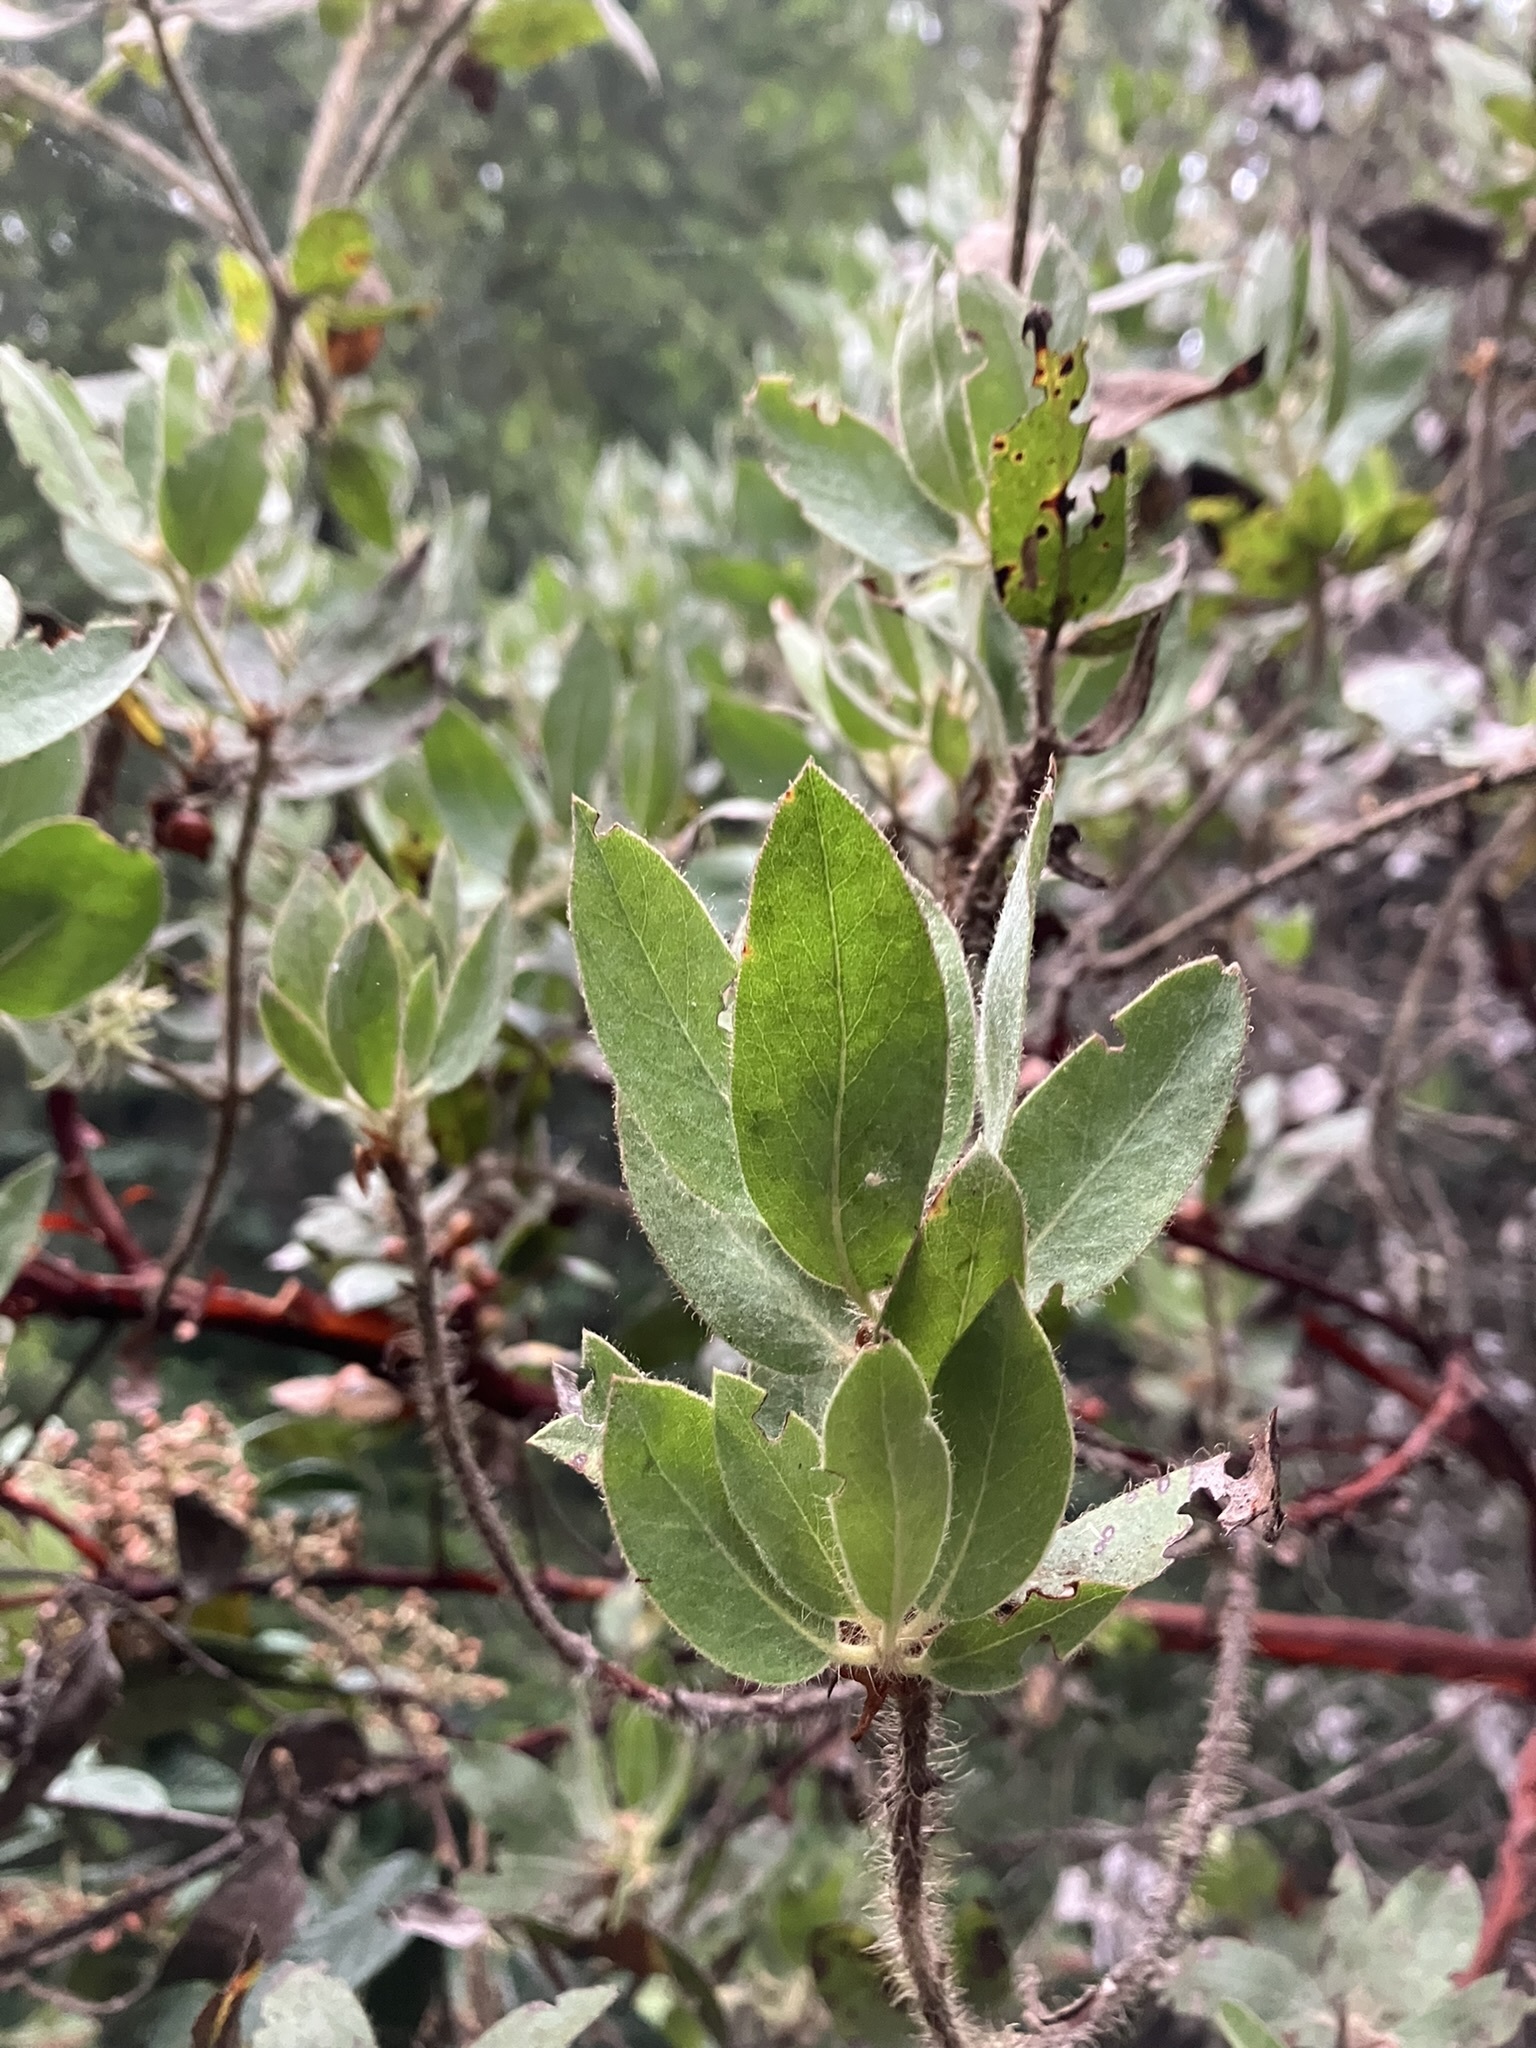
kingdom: Plantae
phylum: Tracheophyta
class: Magnoliopsida
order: Ericales
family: Ericaceae
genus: Arctostaphylos
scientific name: Arctostaphylos columbiana
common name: Bristly bearberry
